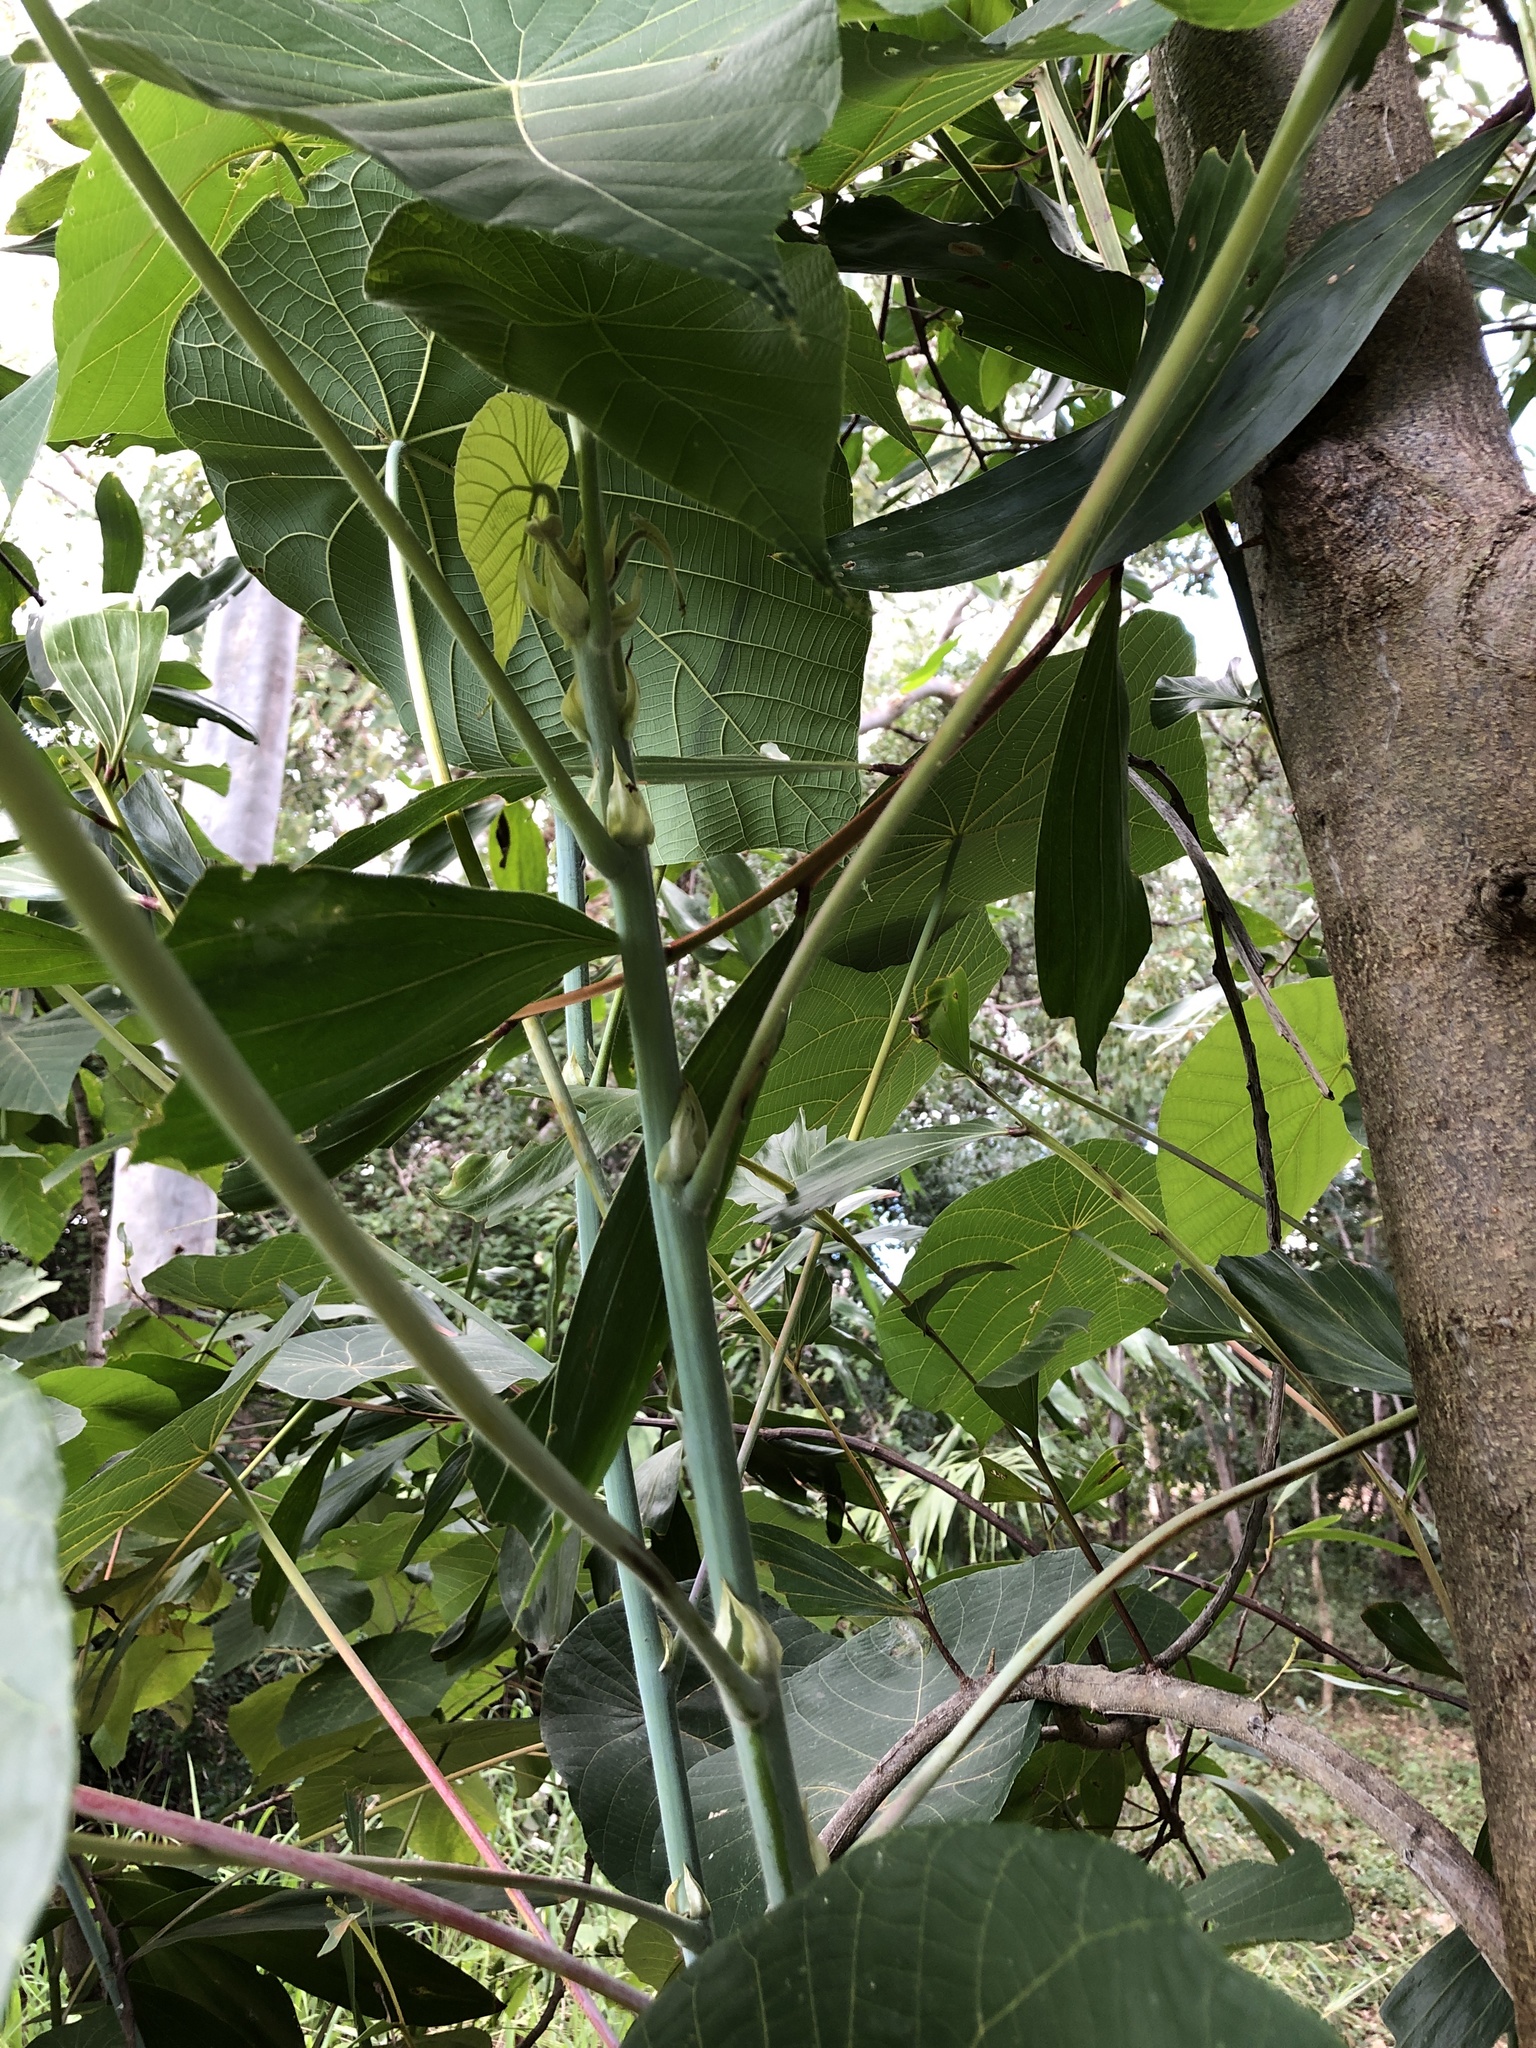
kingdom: Plantae
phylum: Tracheophyta
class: Magnoliopsida
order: Malpighiales
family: Euphorbiaceae
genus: Macaranga
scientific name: Macaranga tanarius
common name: Parasol leaf tree
